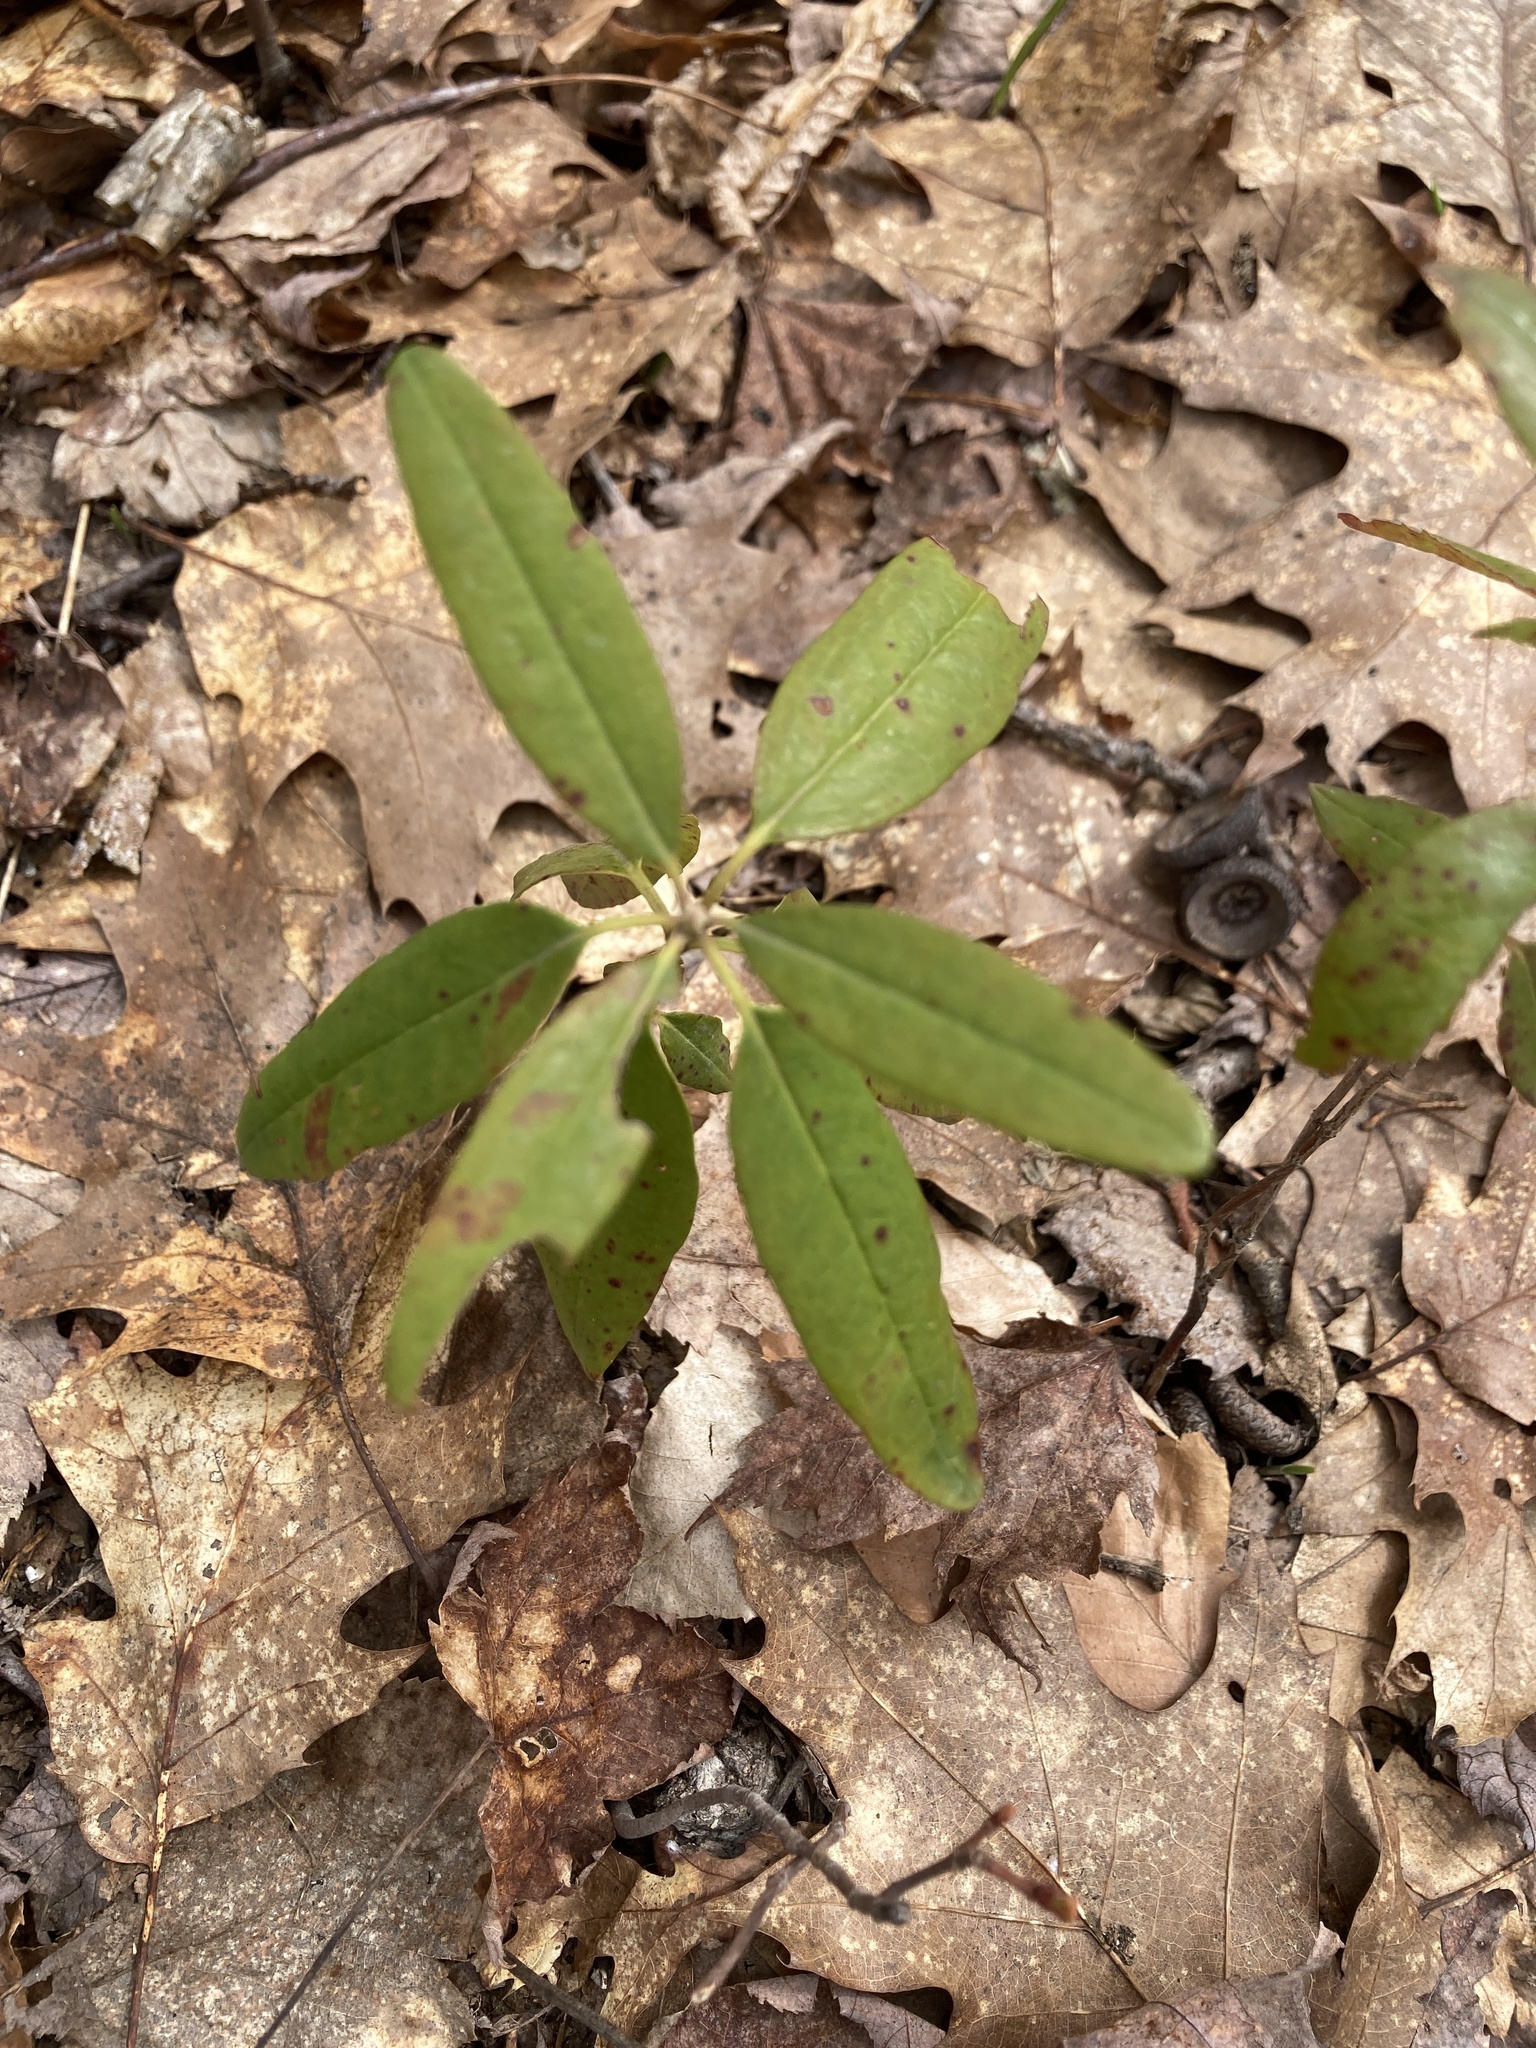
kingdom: Plantae
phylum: Tracheophyta
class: Magnoliopsida
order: Ericales
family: Ericaceae
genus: Kalmia
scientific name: Kalmia angustifolia
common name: Sheep-laurel
